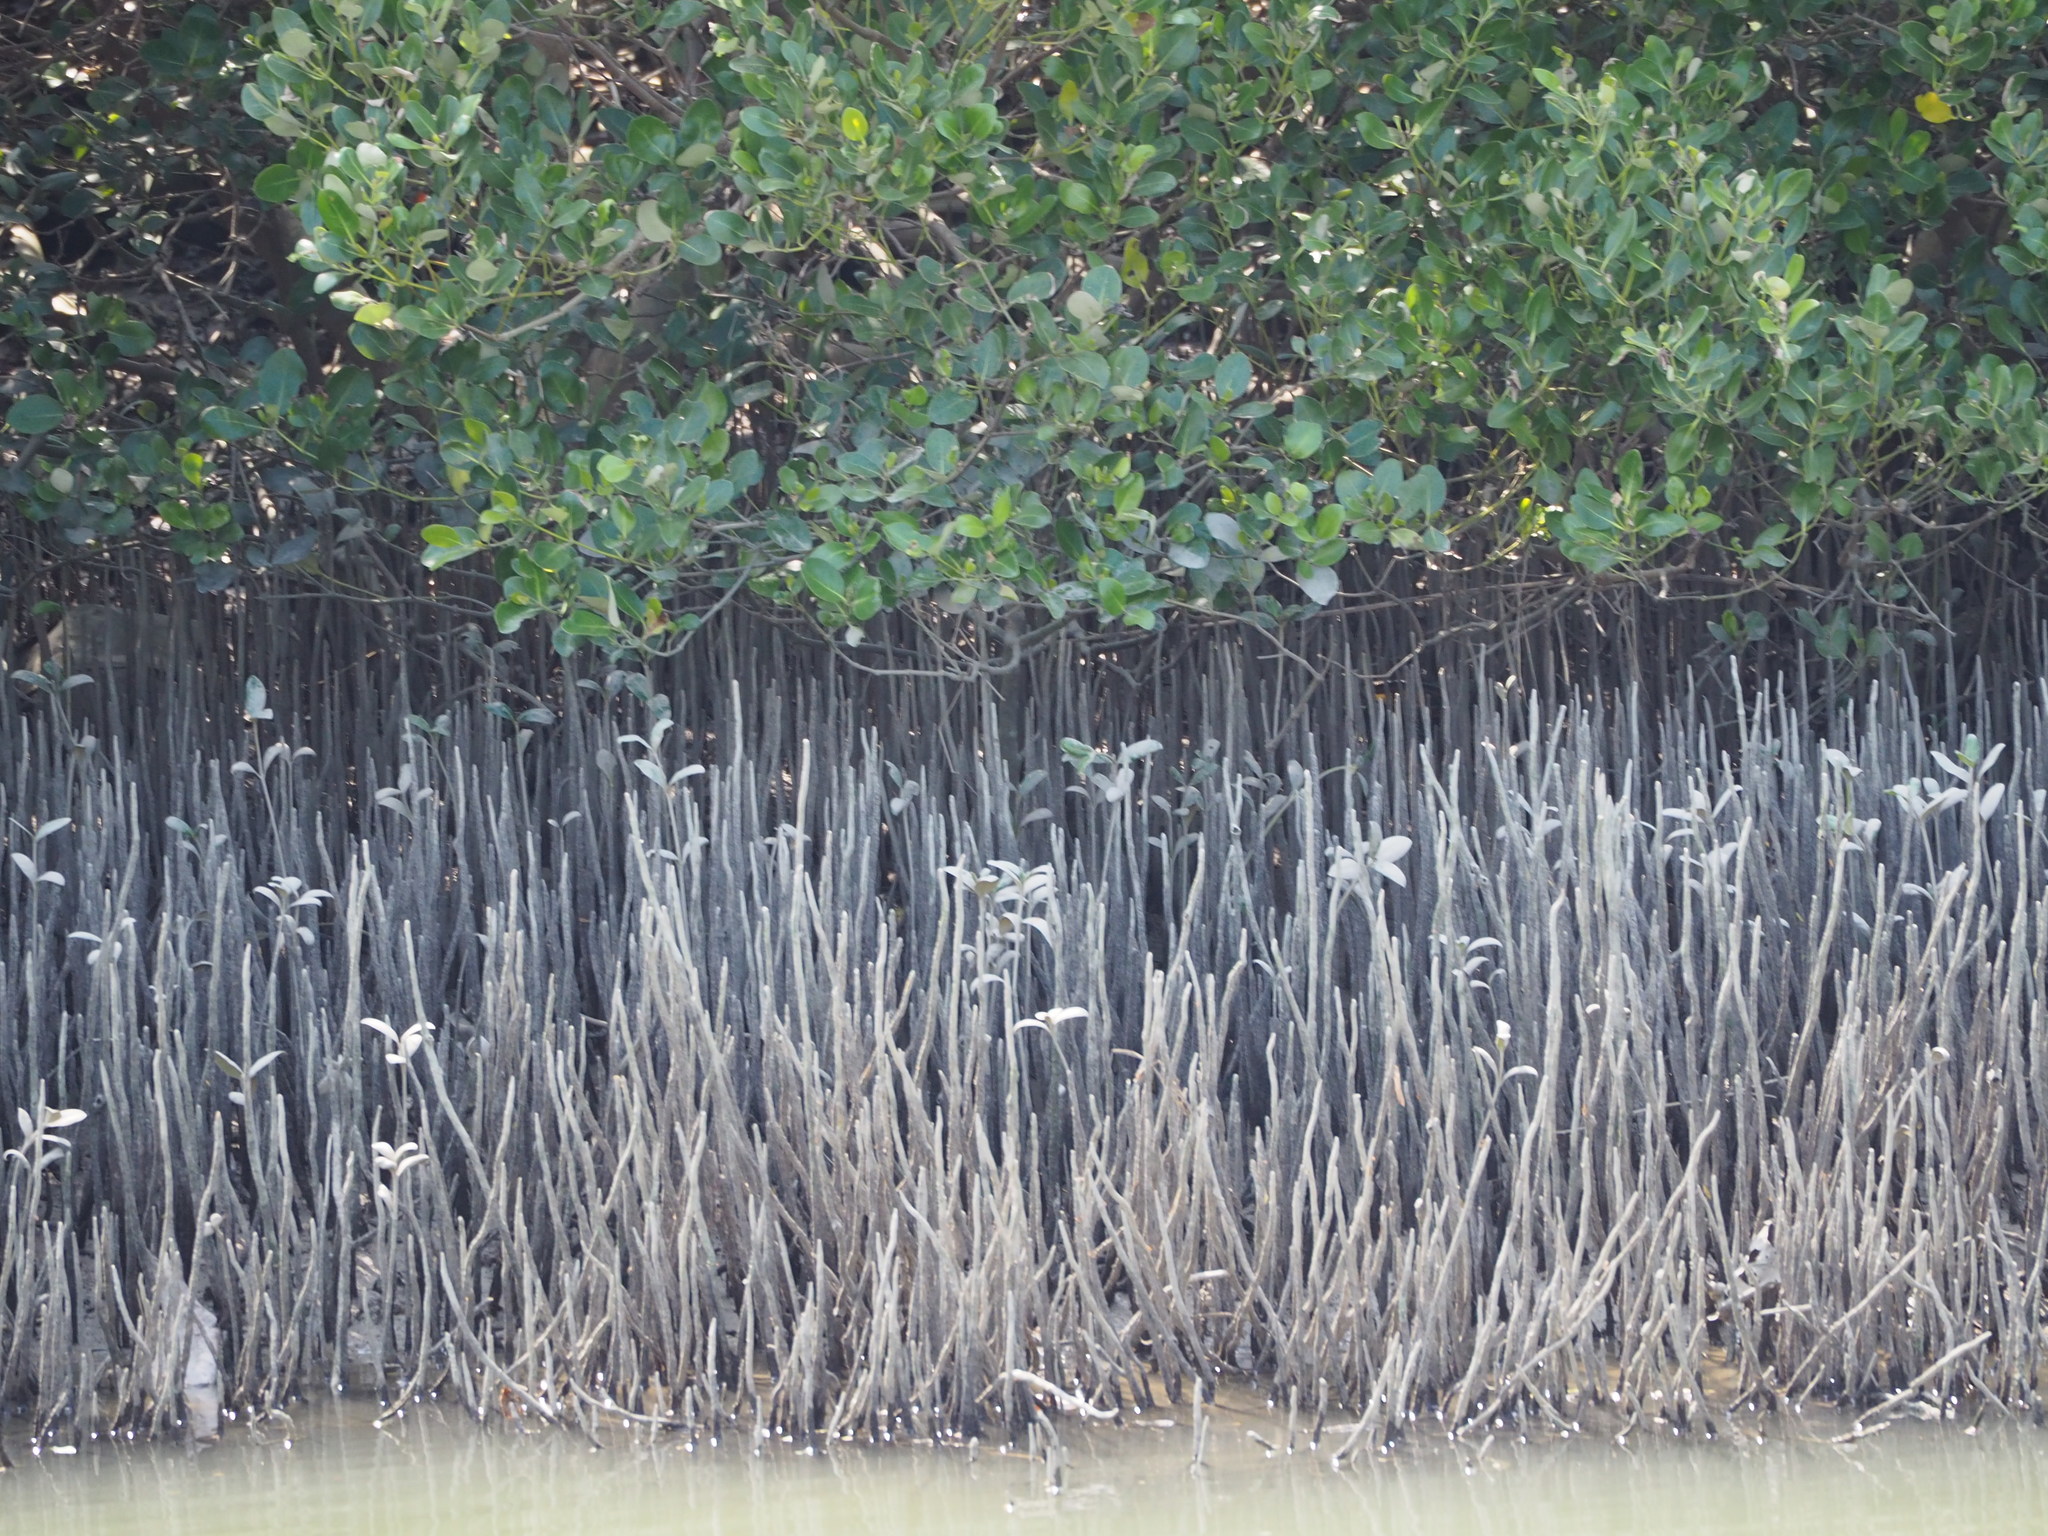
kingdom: Plantae
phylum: Tracheophyta
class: Magnoliopsida
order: Lamiales
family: Acanthaceae
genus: Avicennia
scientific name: Avicennia marina
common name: Gray mangrove
